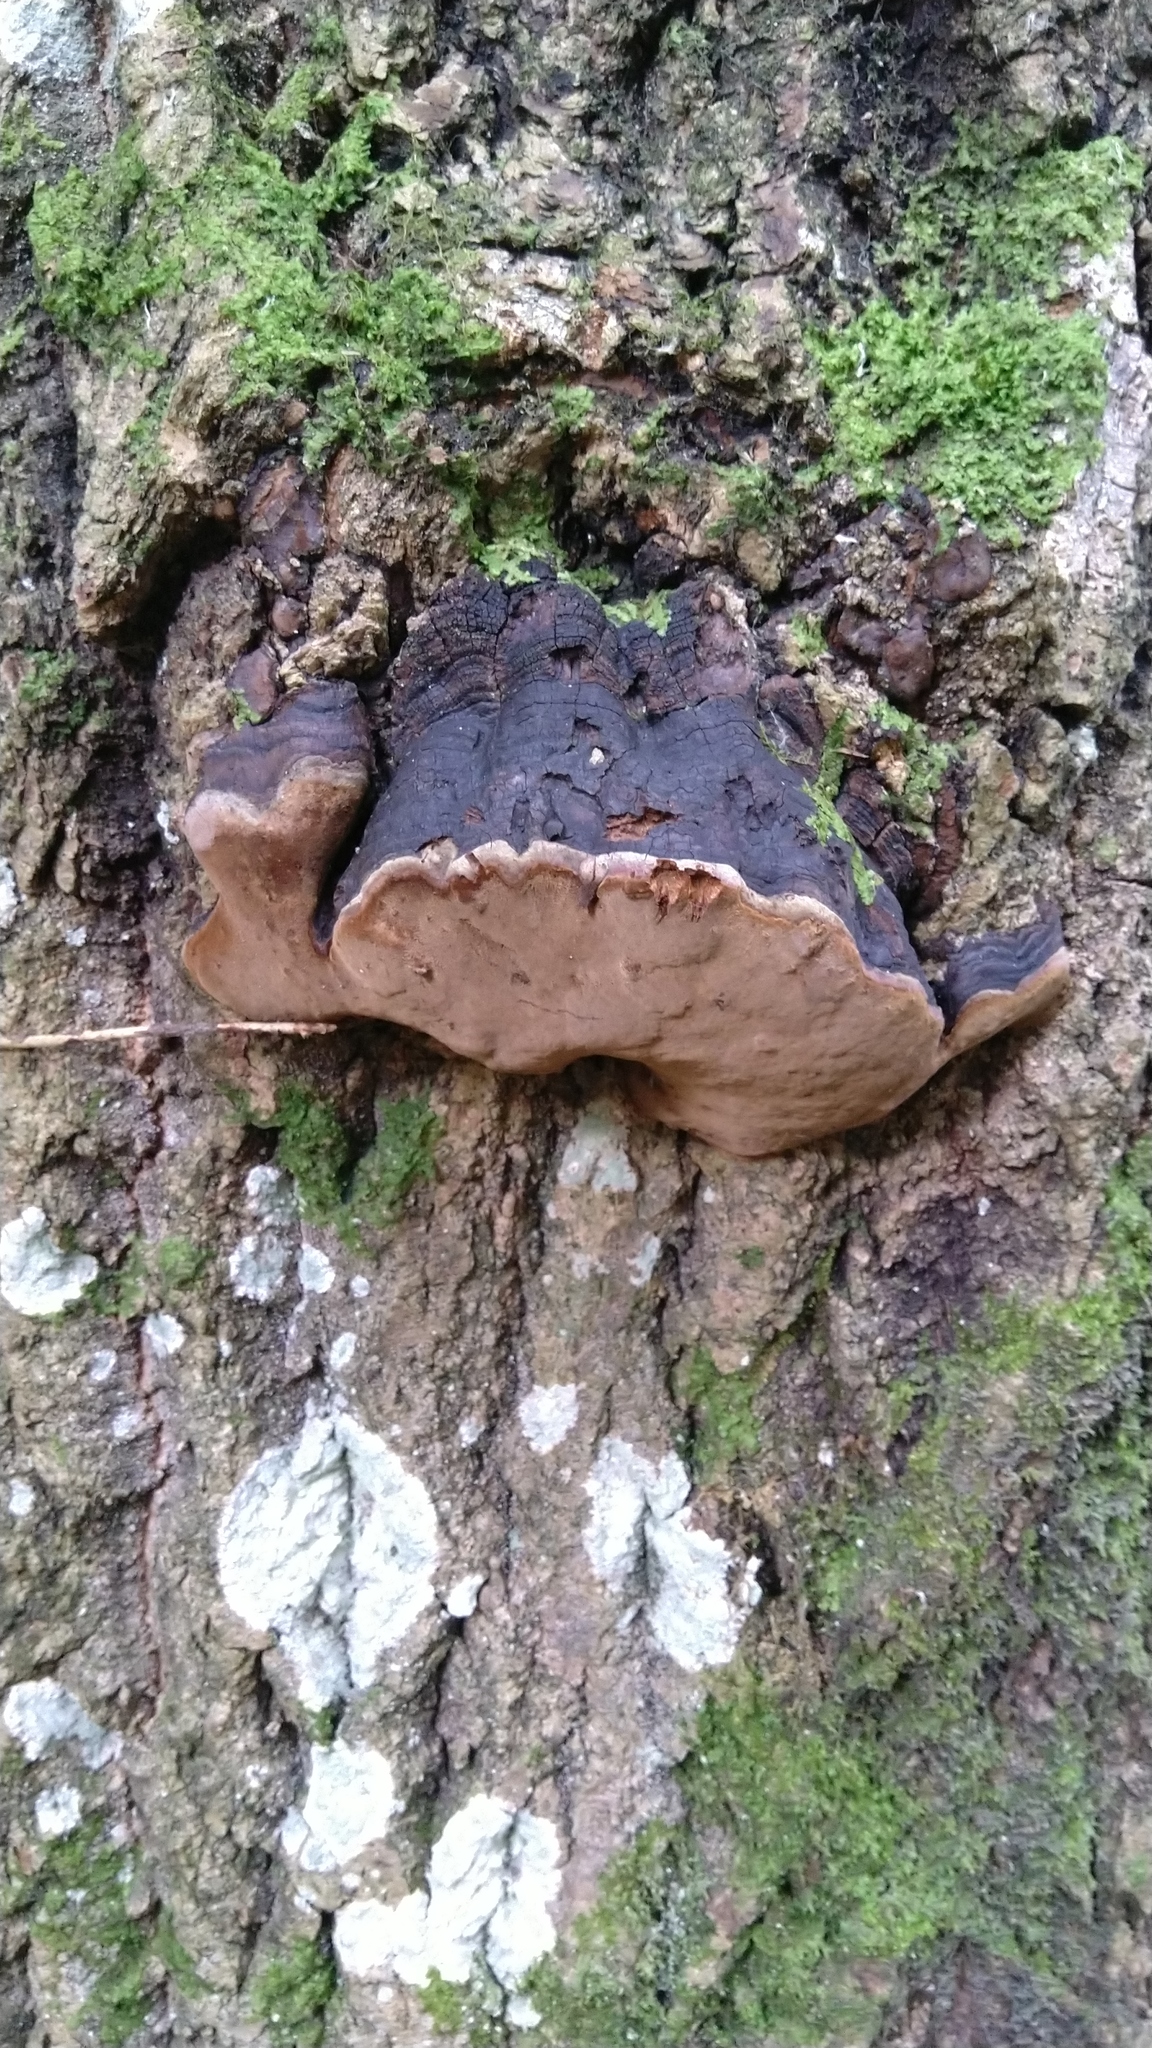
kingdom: Fungi
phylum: Basidiomycota
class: Agaricomycetes
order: Hymenochaetales
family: Hymenochaetaceae
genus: Phellinus
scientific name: Phellinus tremulae
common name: Aspen bracket
